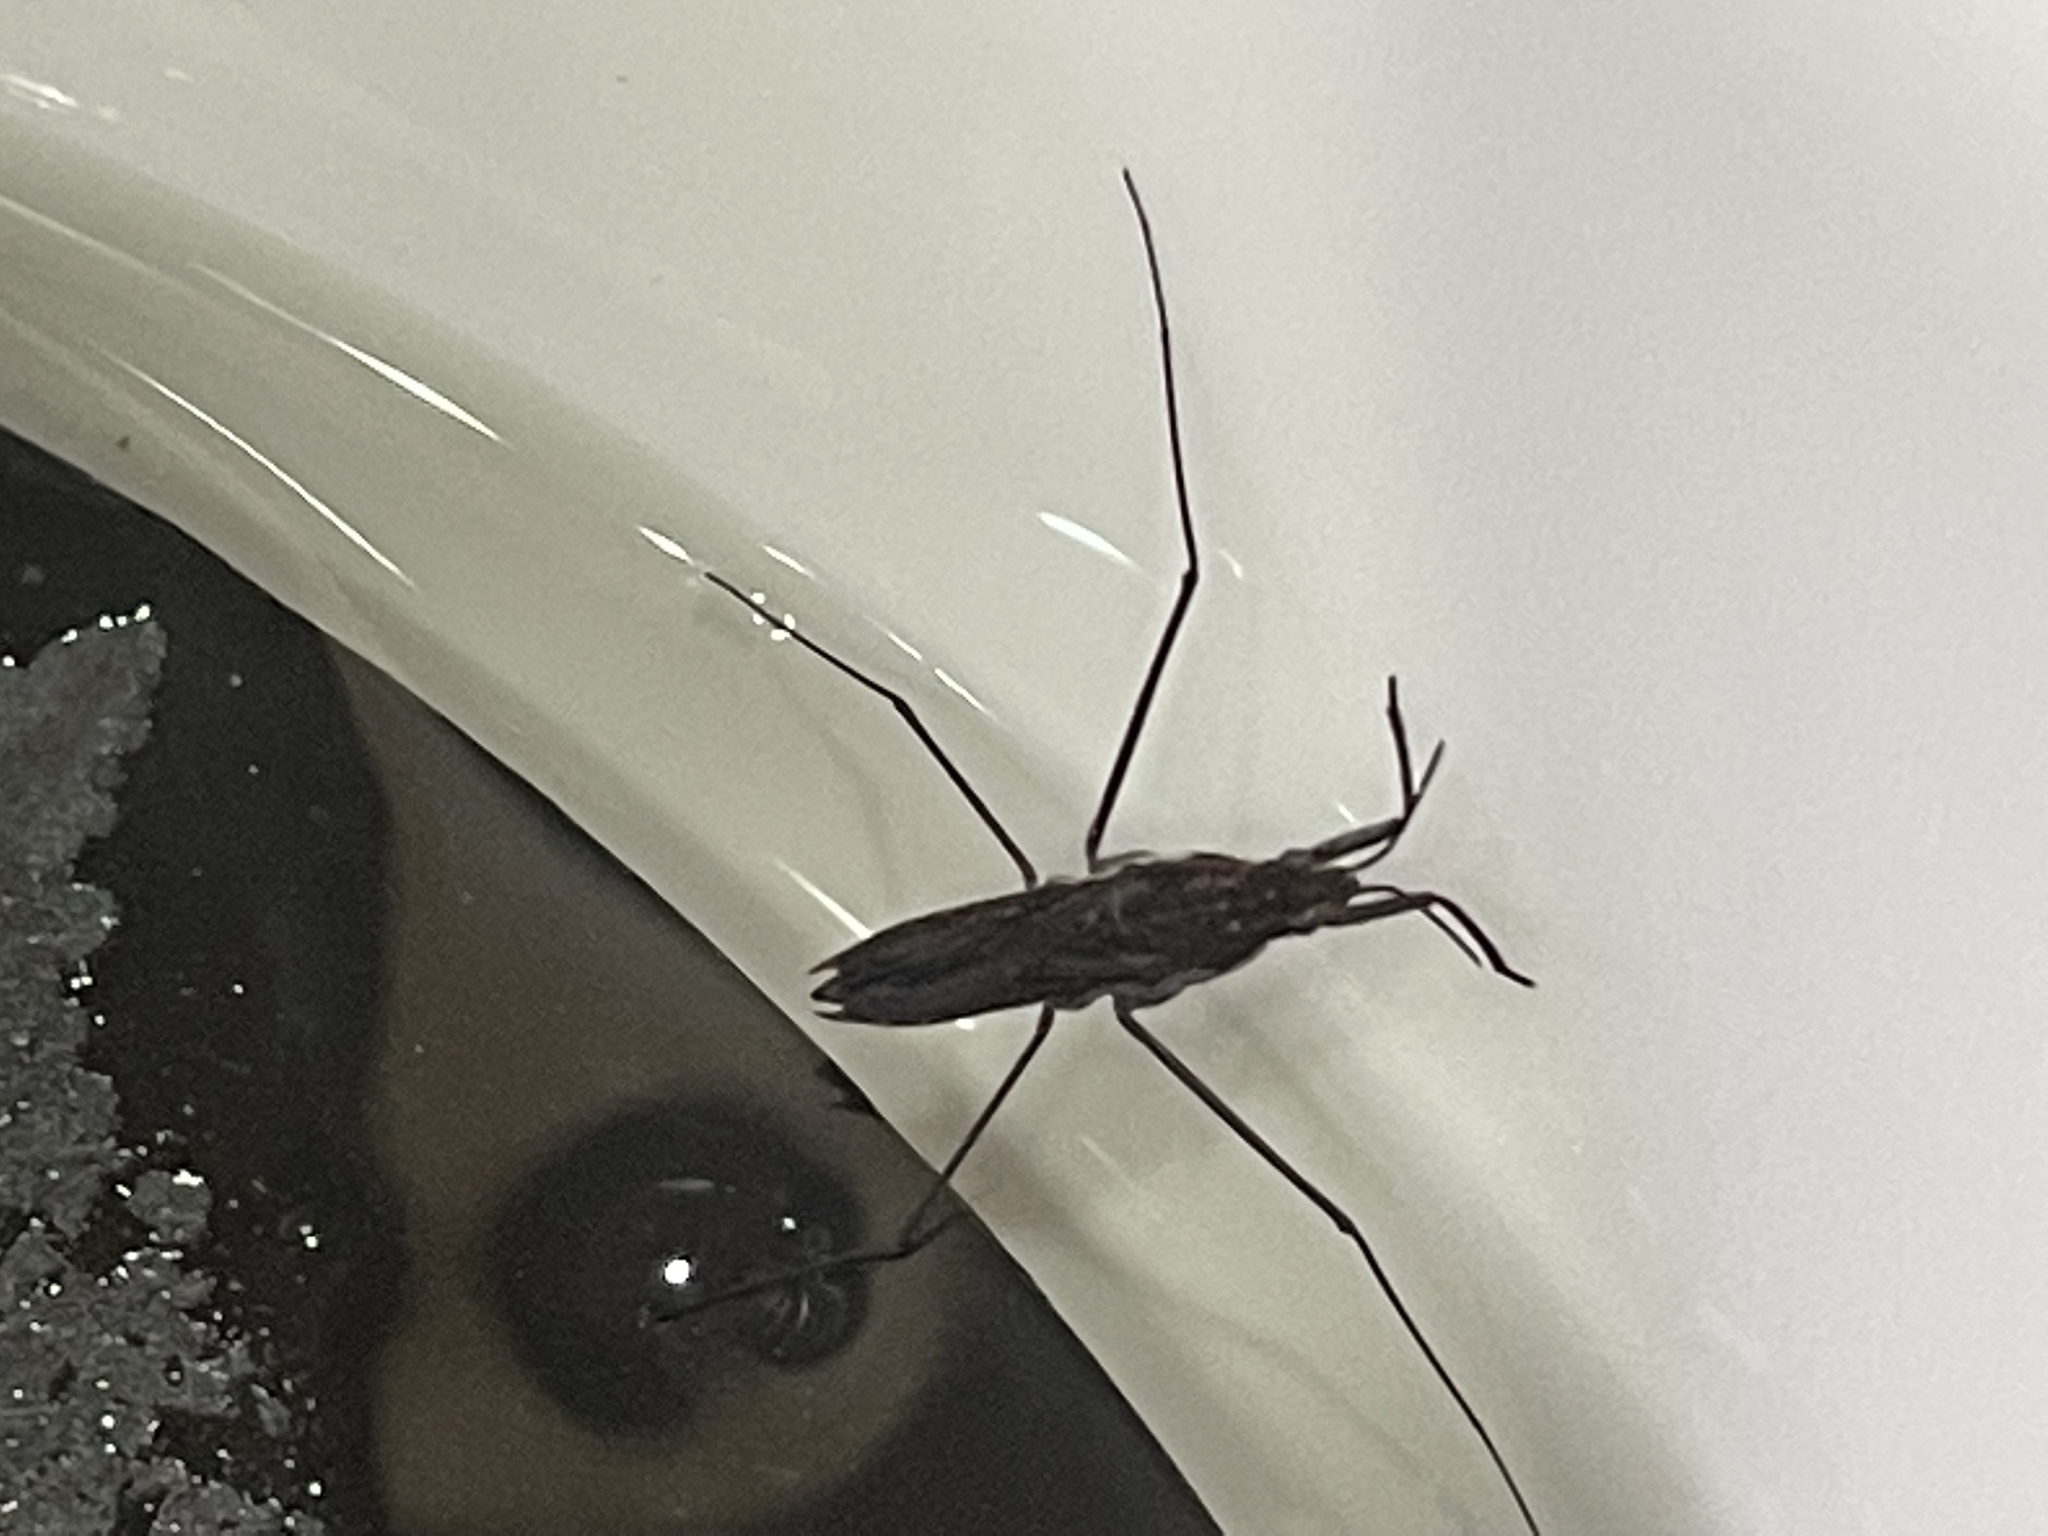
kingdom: Animalia
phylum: Arthropoda
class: Insecta
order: Hemiptera
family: Gerridae
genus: Gerris
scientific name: Gerris
